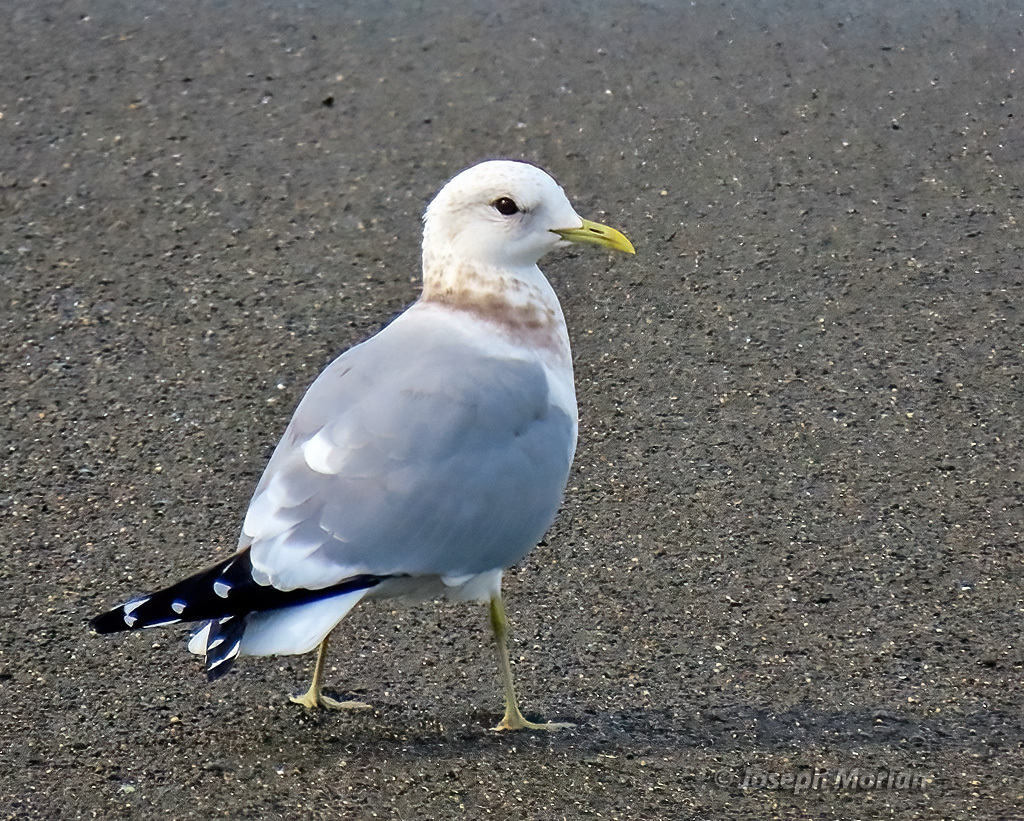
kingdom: Animalia
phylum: Chordata
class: Aves
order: Charadriiformes
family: Laridae
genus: Larus
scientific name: Larus brachyrhynchus
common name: Short-billed gull
